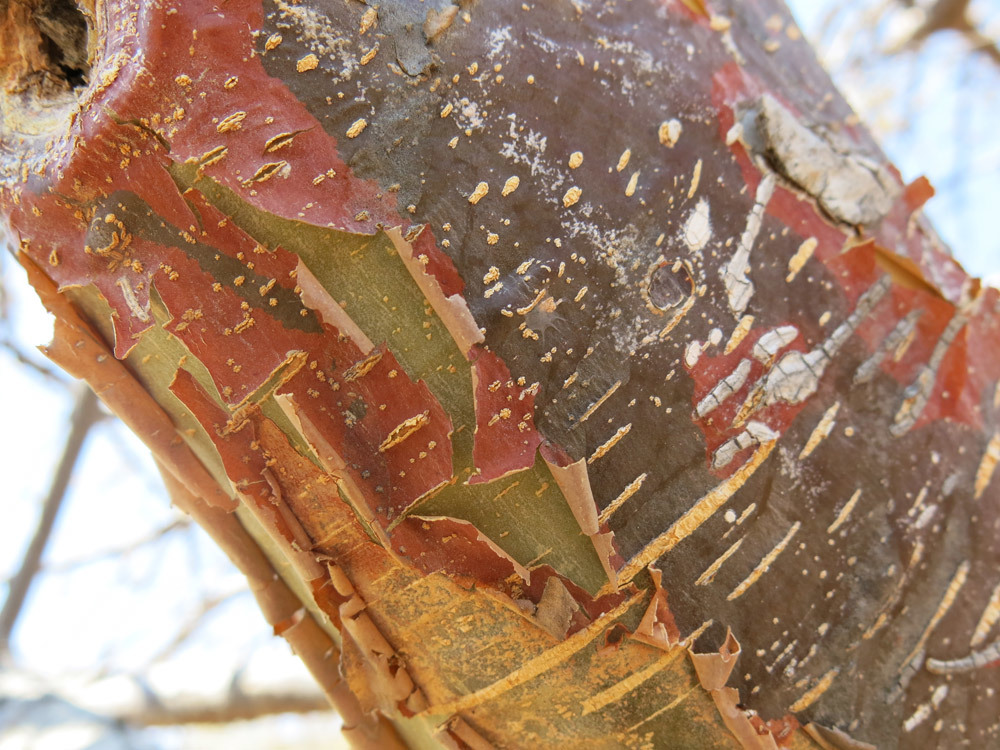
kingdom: Plantae
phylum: Tracheophyta
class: Magnoliopsida
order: Malvales
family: Malvaceae
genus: Sterculia
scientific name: Sterculia rogersii
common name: Star-chestnut
